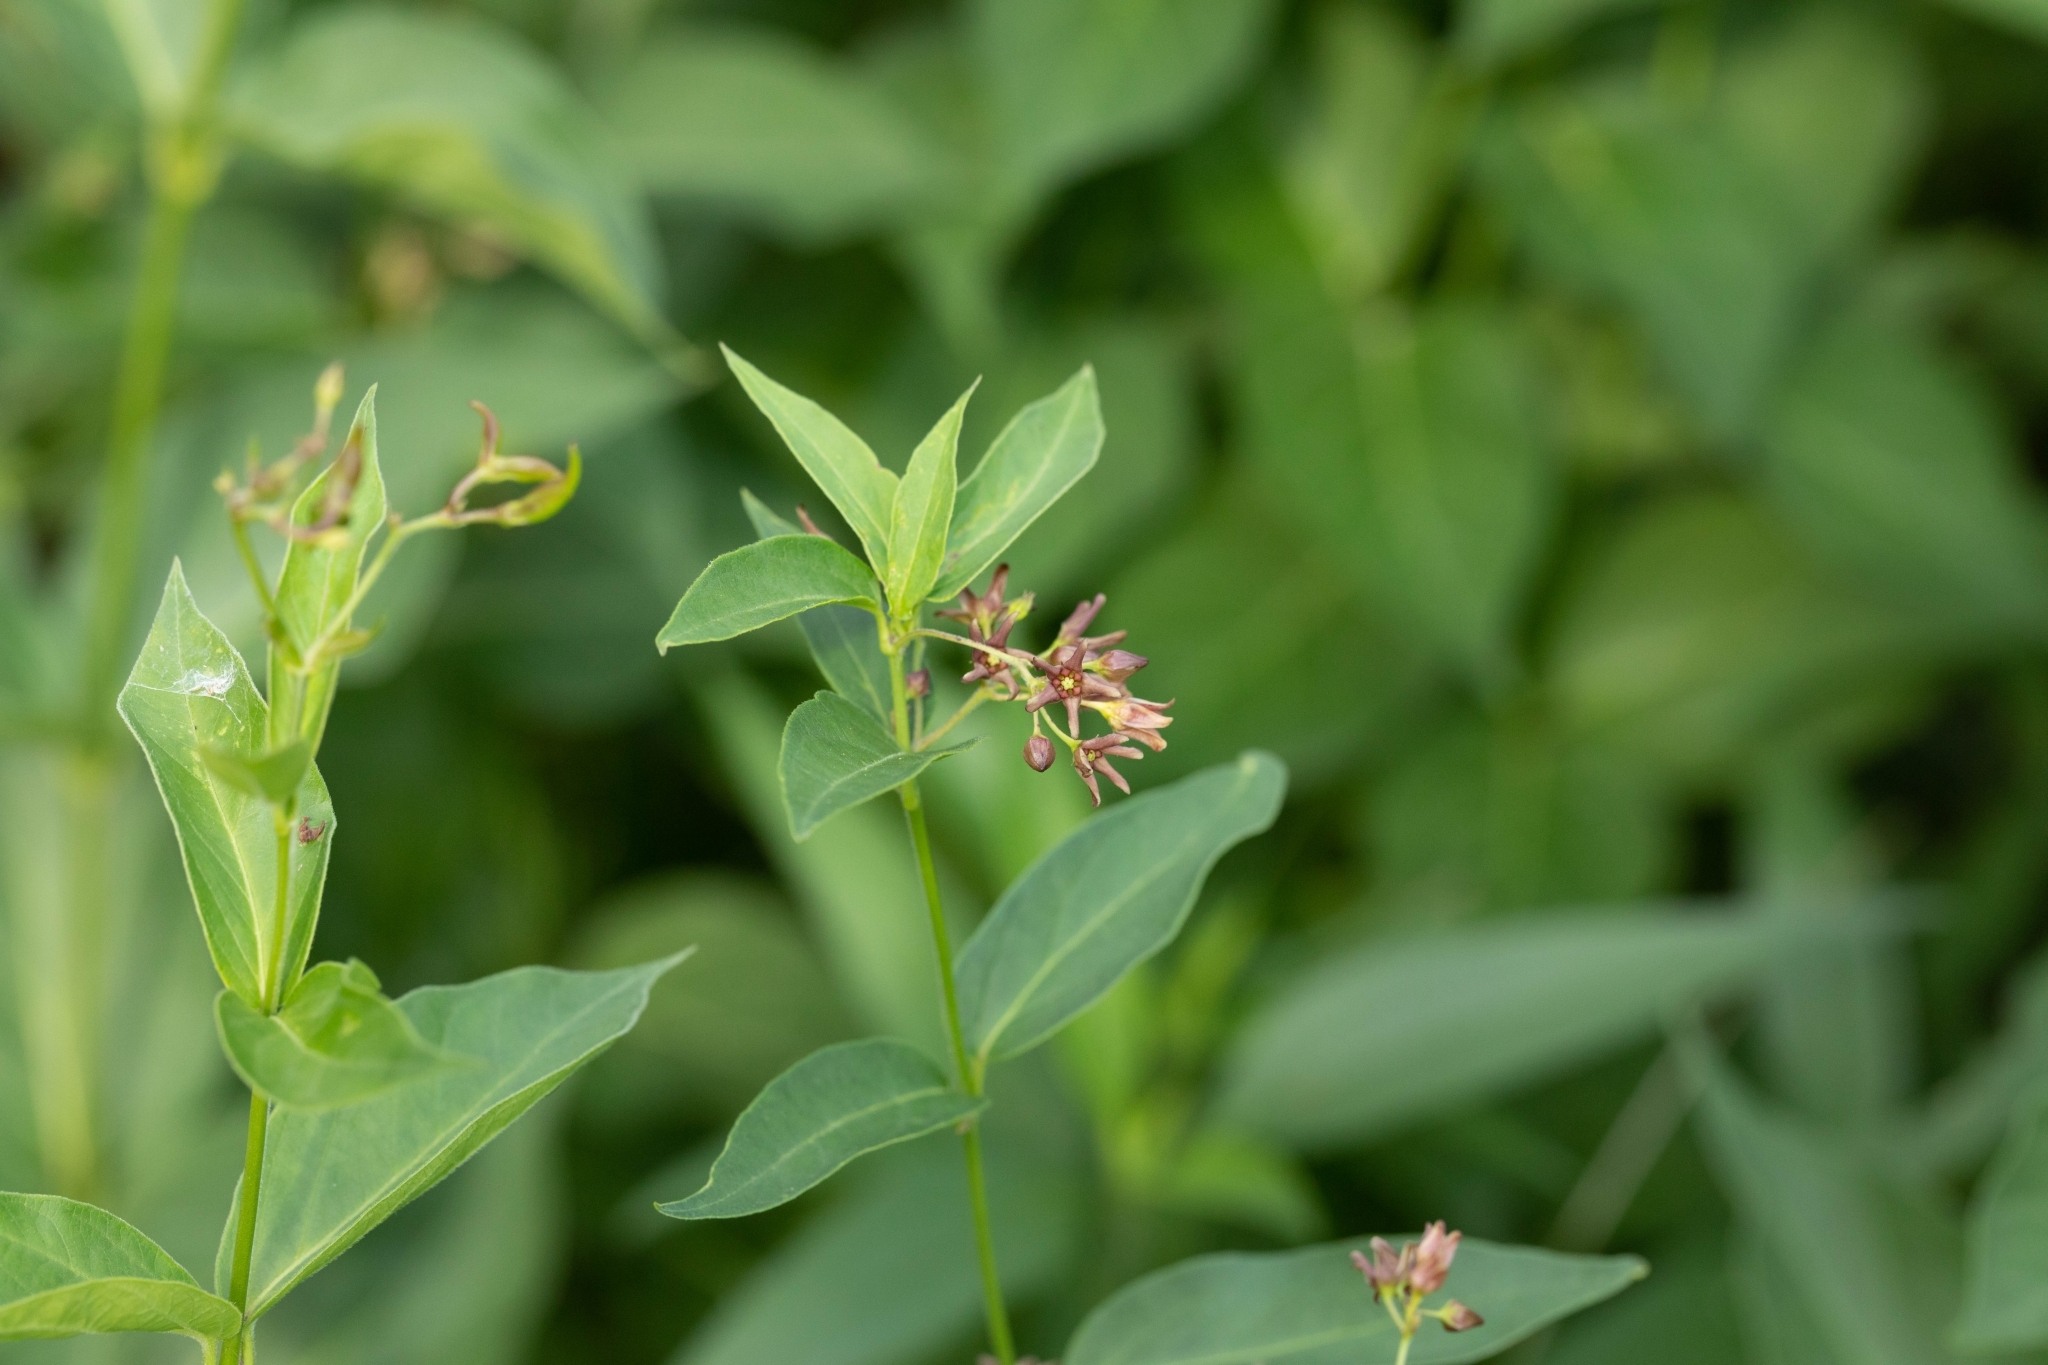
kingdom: Plantae
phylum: Tracheophyta
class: Magnoliopsida
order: Gentianales
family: Apocynaceae
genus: Vincetoxicum
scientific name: Vincetoxicum rossicum
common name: Dog-strangling vine
